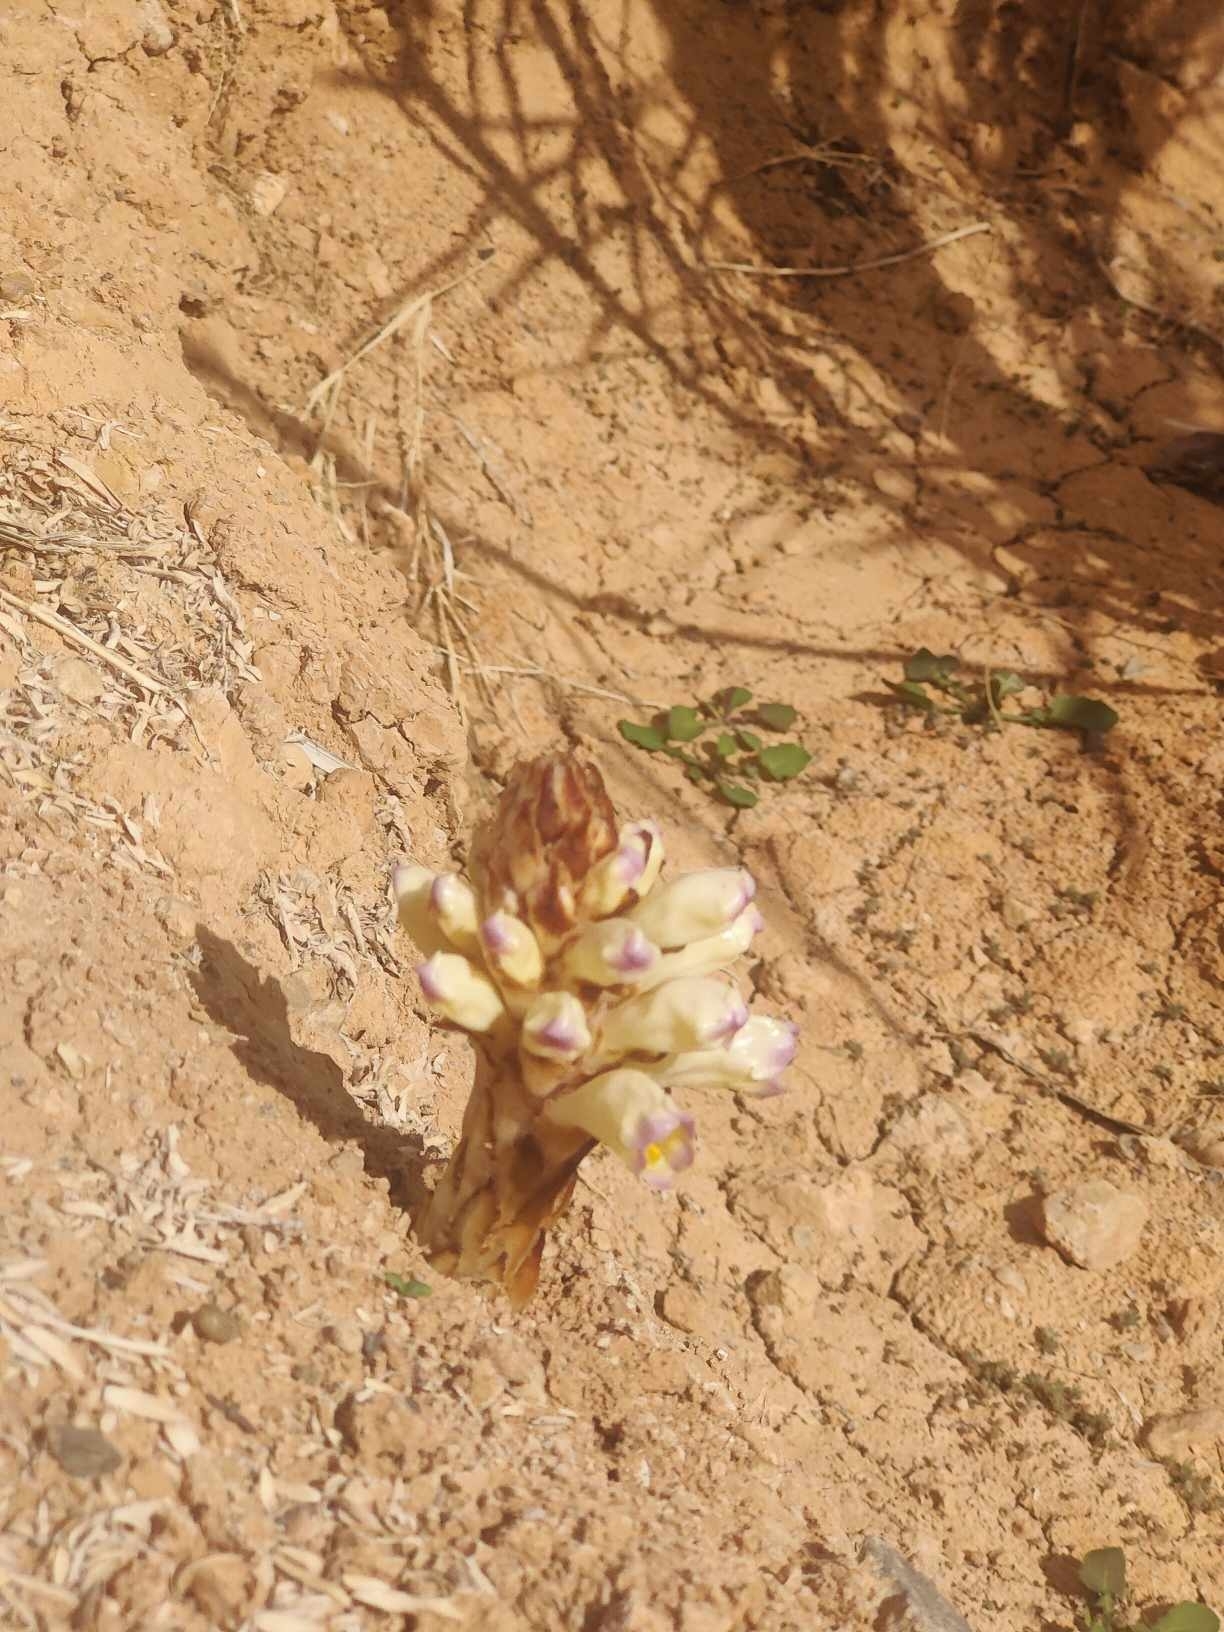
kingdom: Plantae
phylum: Tracheophyta
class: Magnoliopsida
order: Lamiales
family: Orobanchaceae
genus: Cistanche
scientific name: Cistanche violacea
